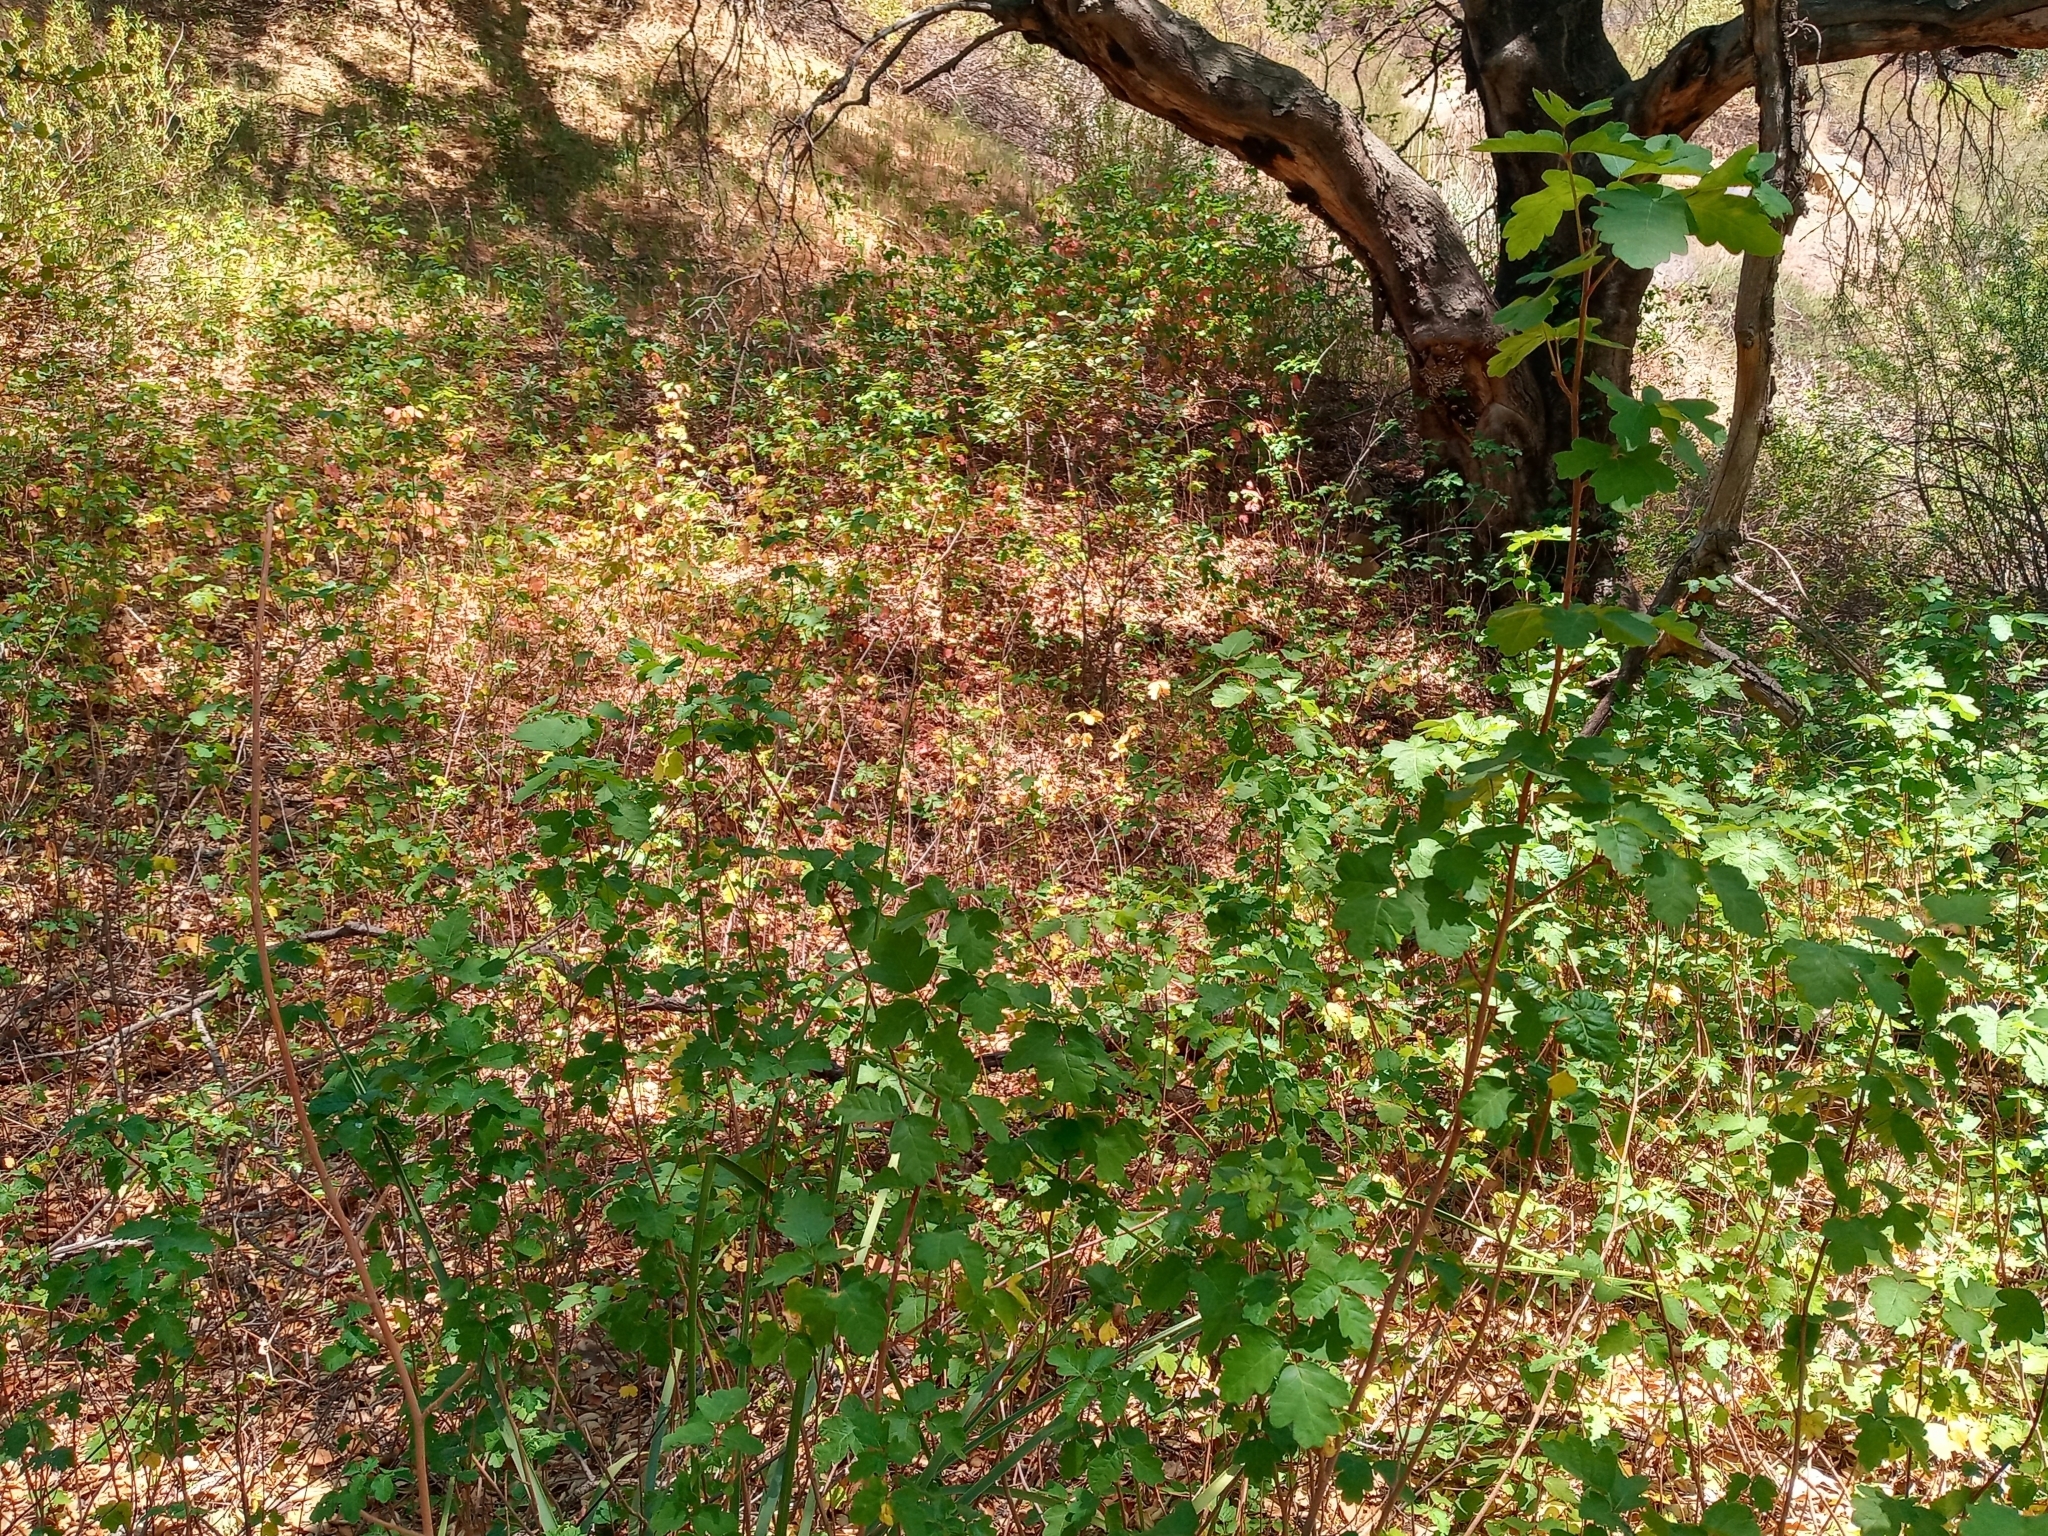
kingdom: Plantae
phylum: Tracheophyta
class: Magnoliopsida
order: Sapindales
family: Anacardiaceae
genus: Toxicodendron
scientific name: Toxicodendron diversilobum
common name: Pacific poison-oak
